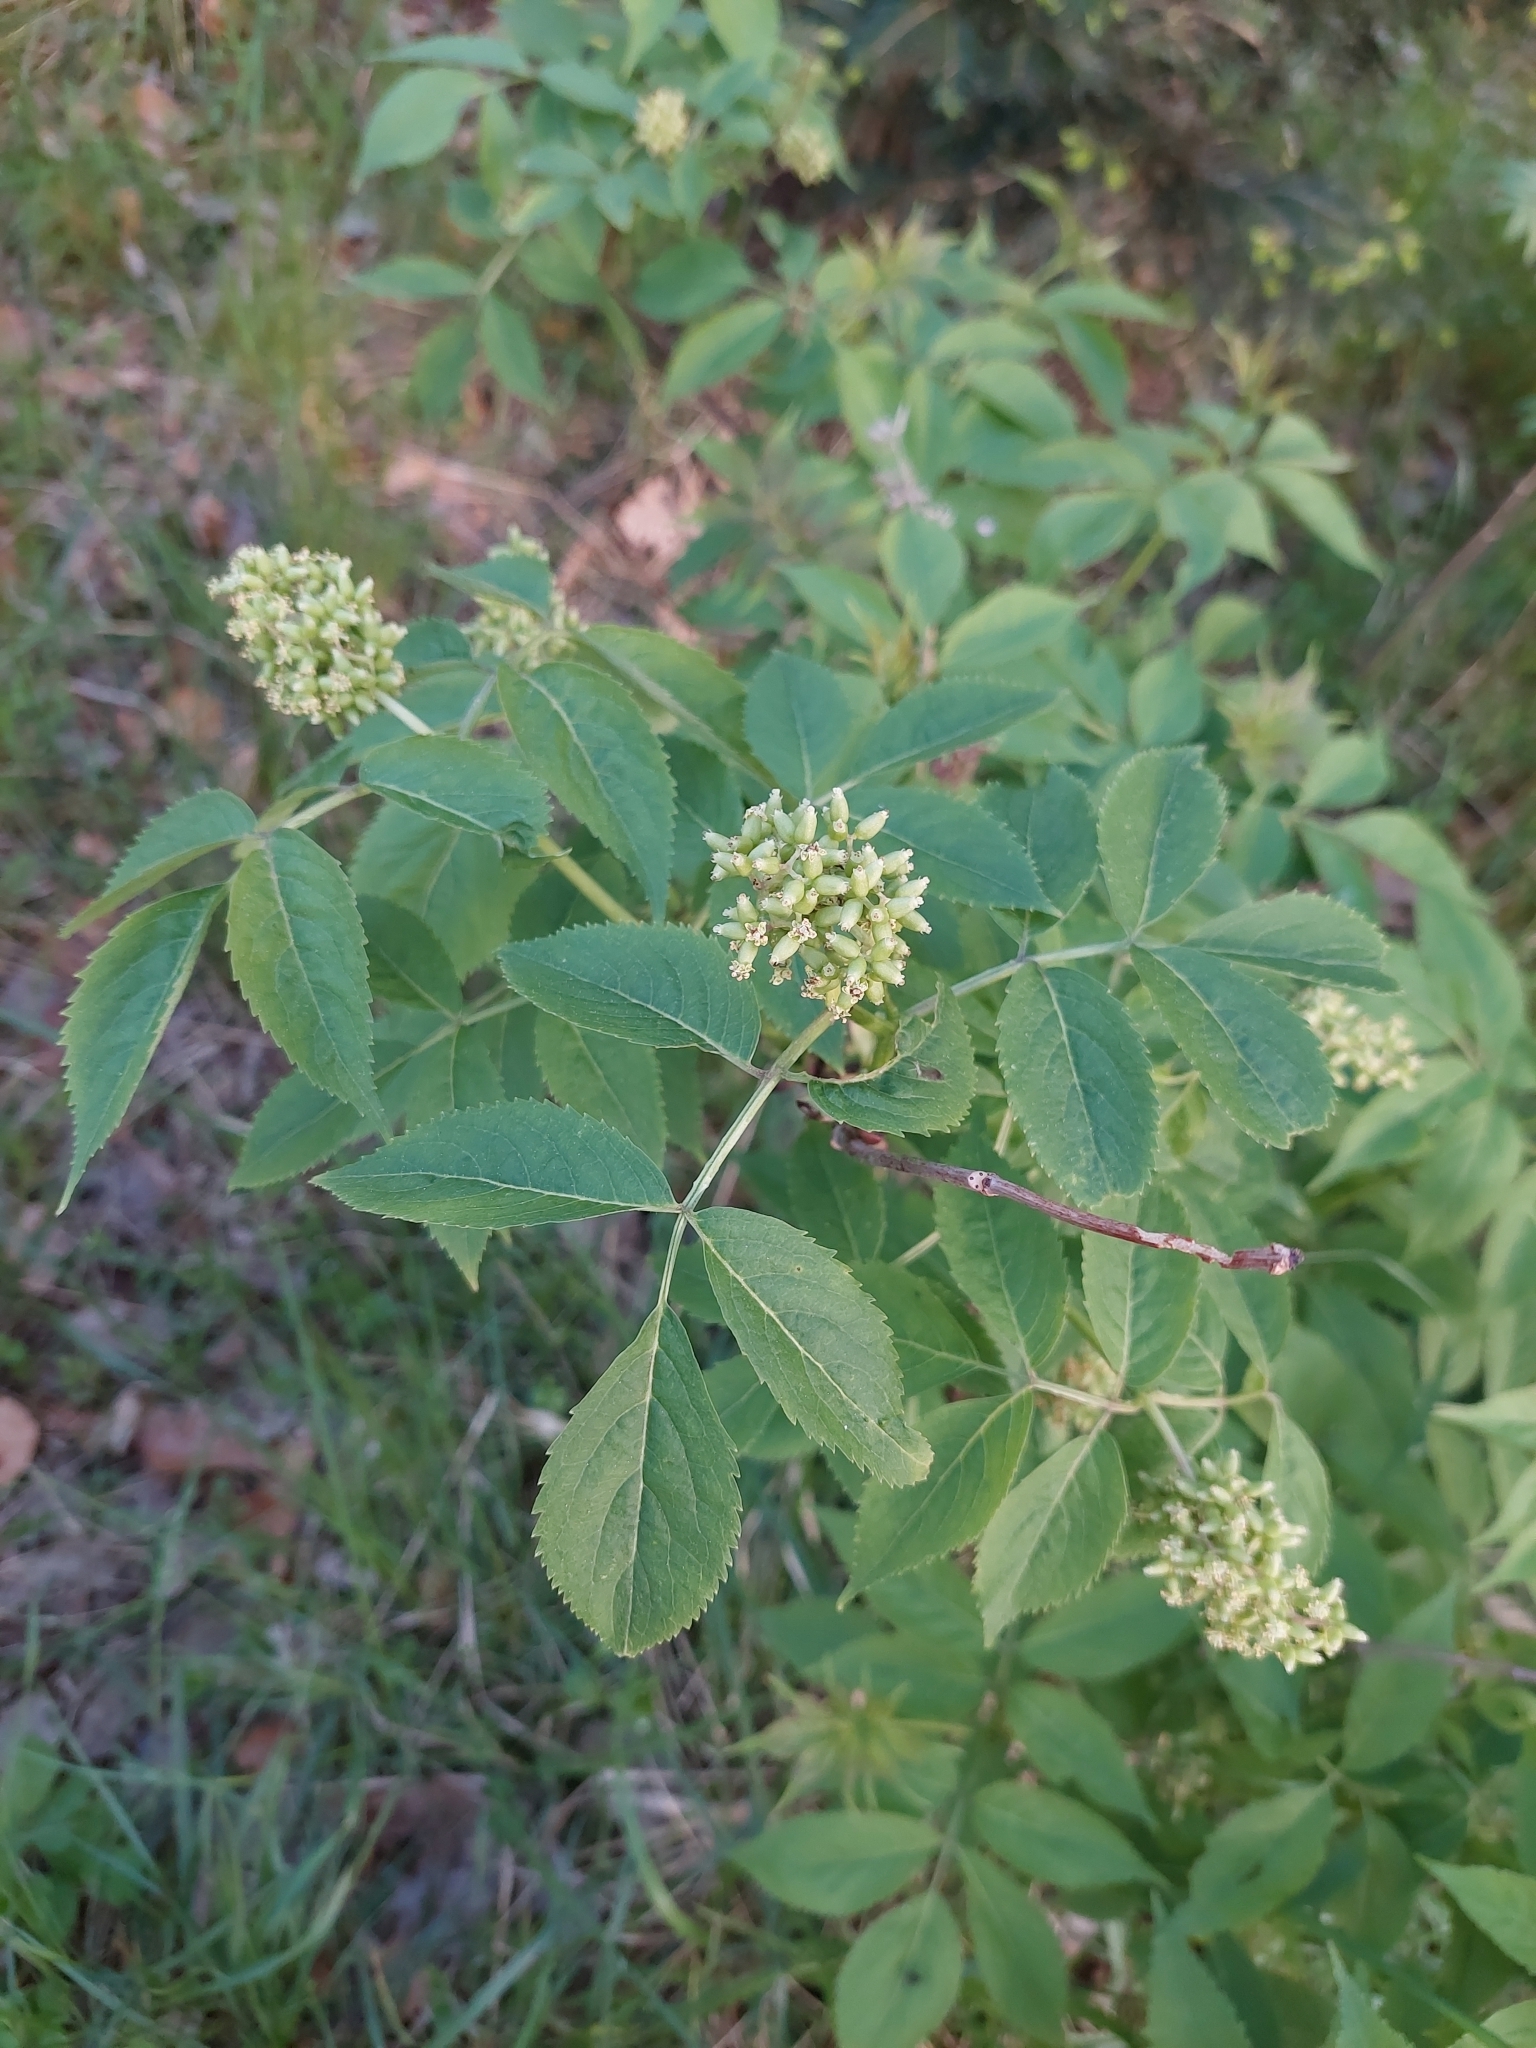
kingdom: Plantae
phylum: Tracheophyta
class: Magnoliopsida
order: Dipsacales
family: Viburnaceae
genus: Sambucus
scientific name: Sambucus racemosa
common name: Red-berried elder
